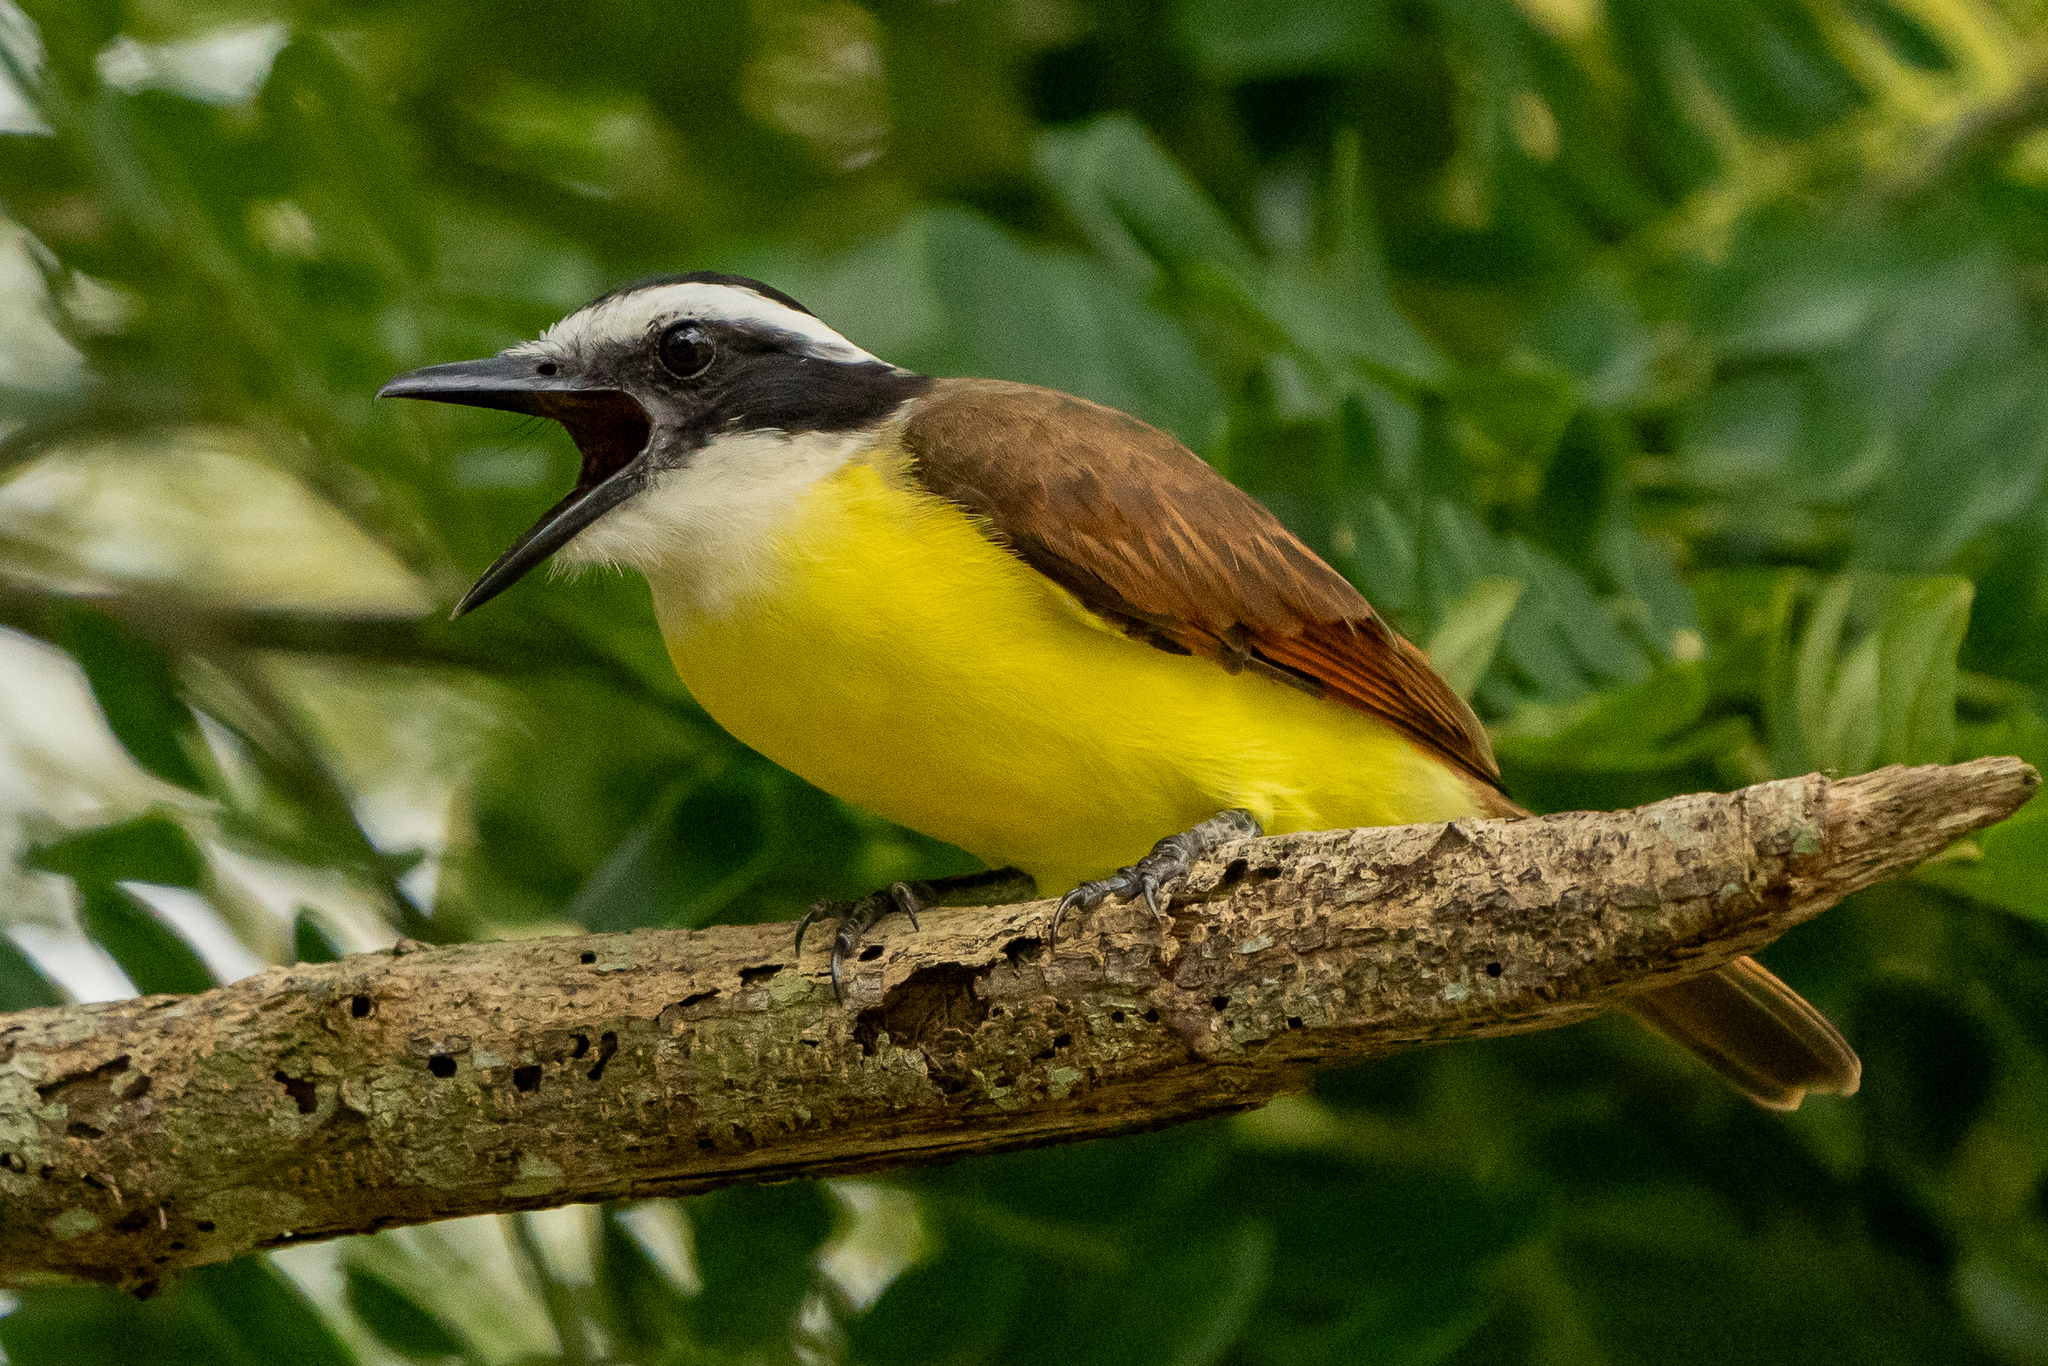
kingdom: Animalia
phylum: Chordata
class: Aves
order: Passeriformes
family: Tyrannidae
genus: Pitangus
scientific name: Pitangus sulphuratus
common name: Great kiskadee
